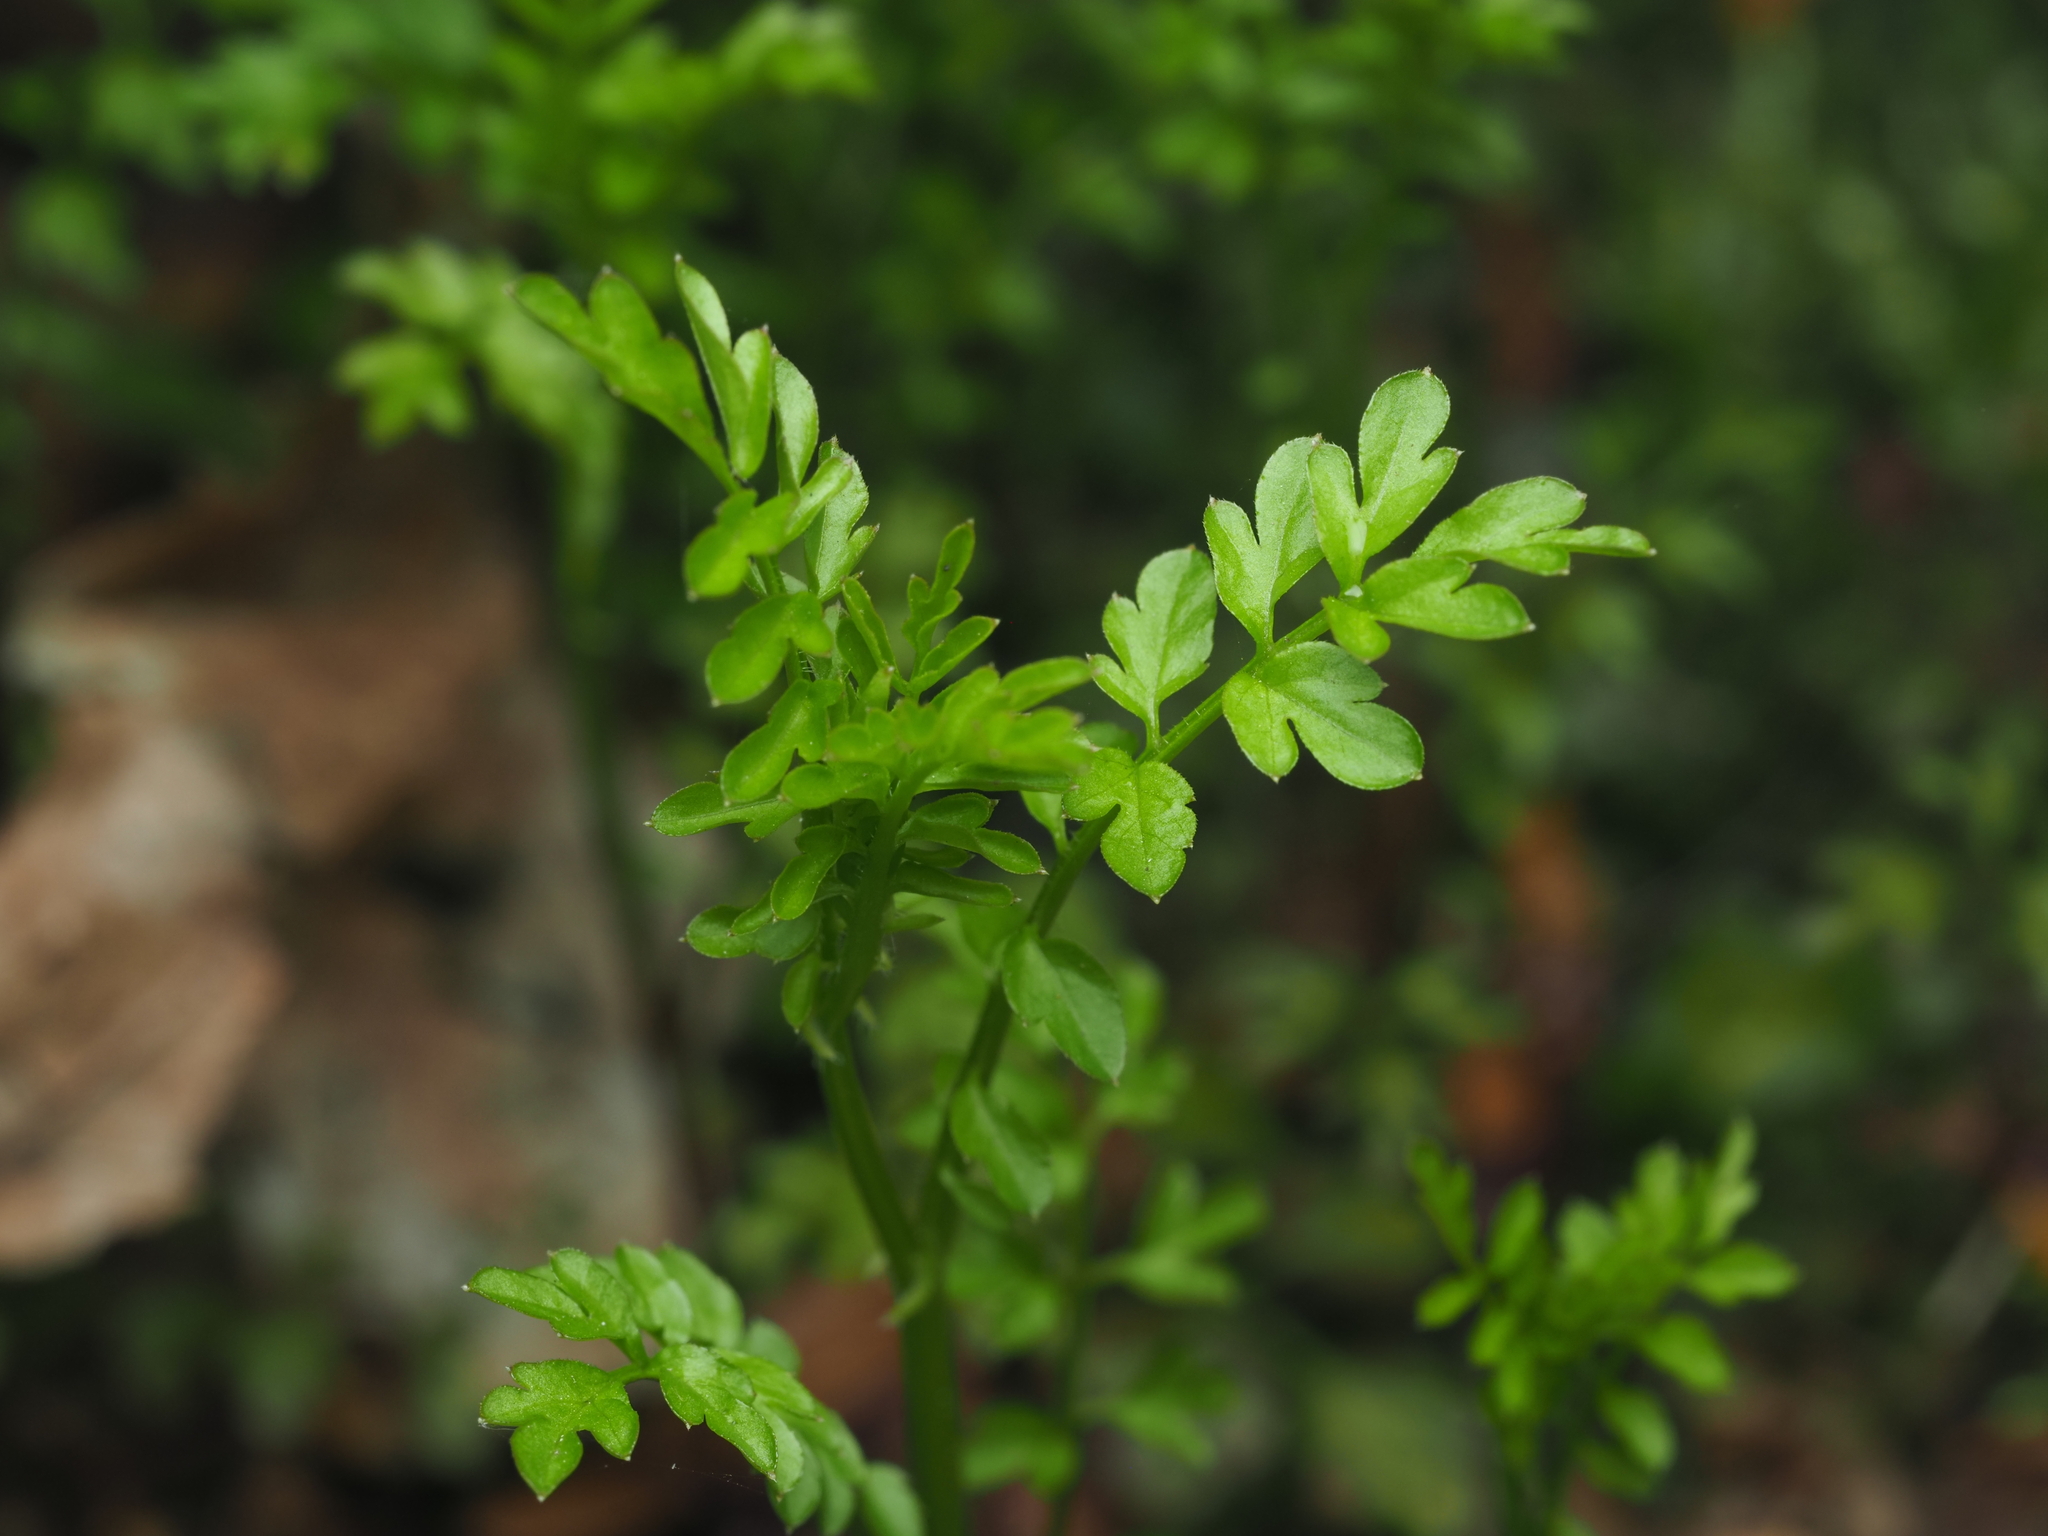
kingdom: Plantae
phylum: Tracheophyta
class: Magnoliopsida
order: Brassicales
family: Brassicaceae
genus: Cardamine
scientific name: Cardamine impatiens
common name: Narrow-leaved bitter-cress
